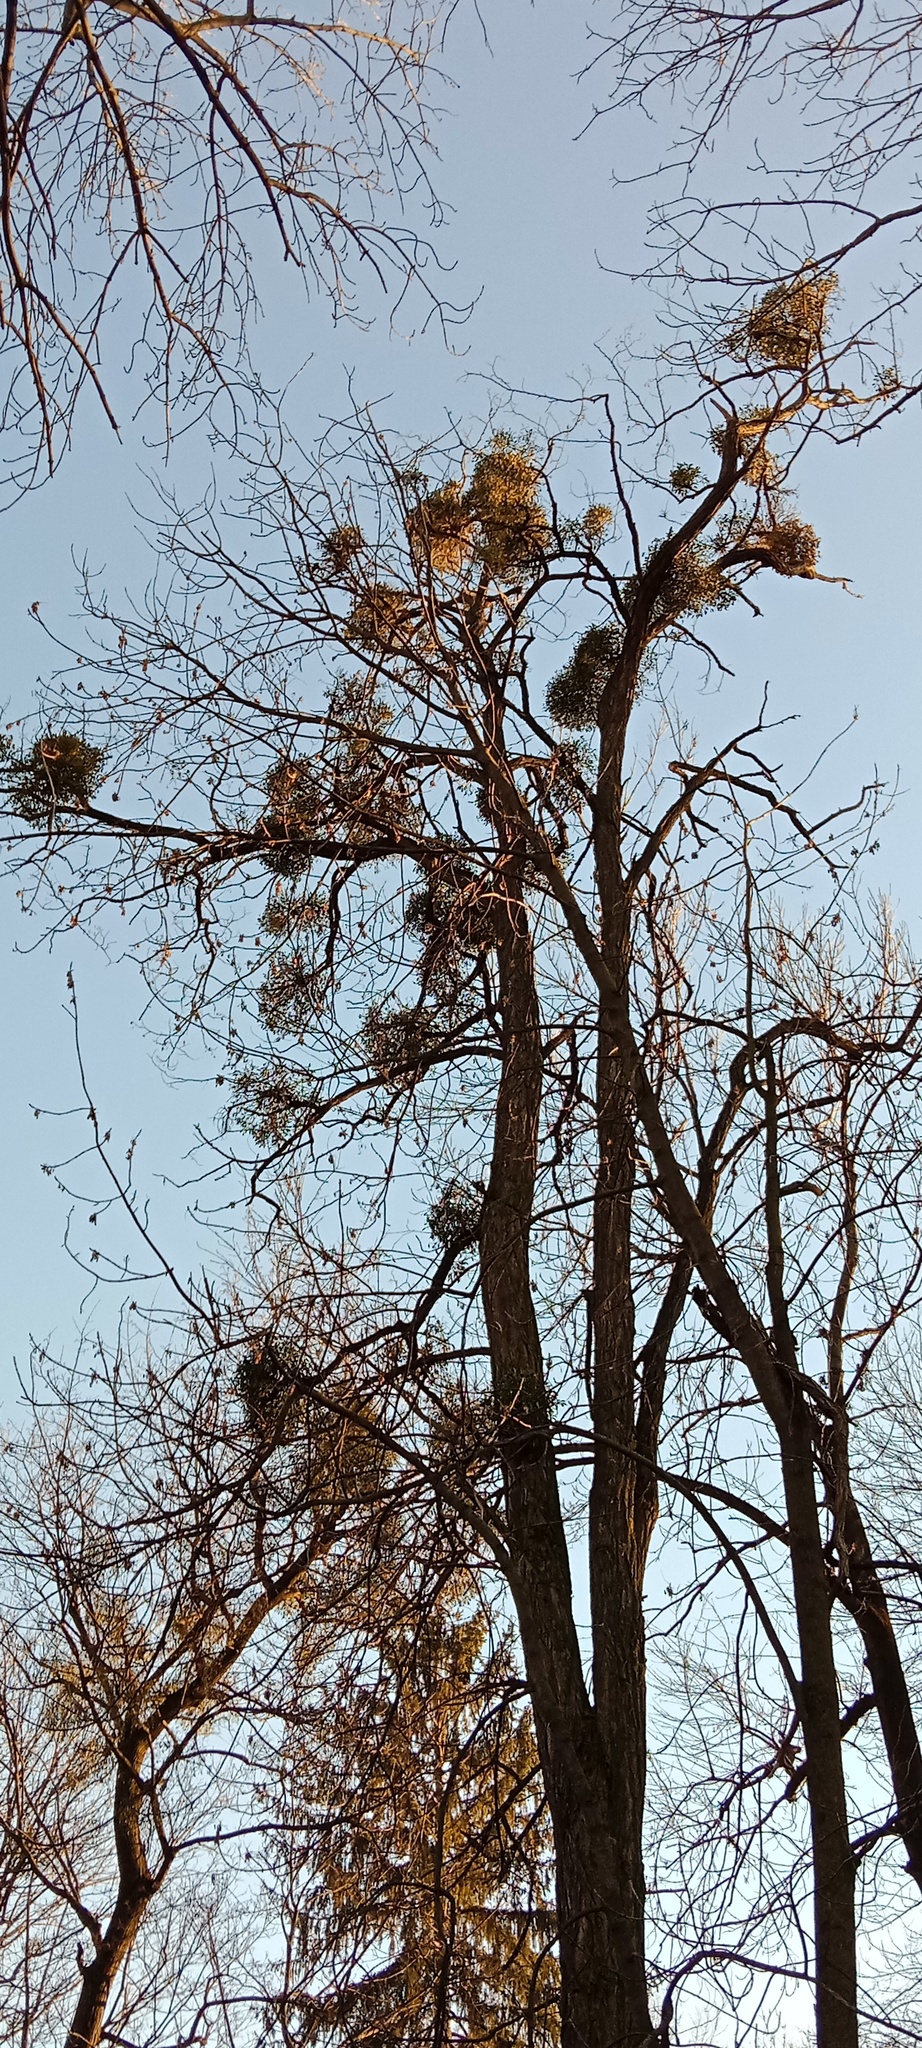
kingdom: Plantae
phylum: Tracheophyta
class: Magnoliopsida
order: Santalales
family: Viscaceae
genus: Viscum
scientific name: Viscum album
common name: Mistletoe
